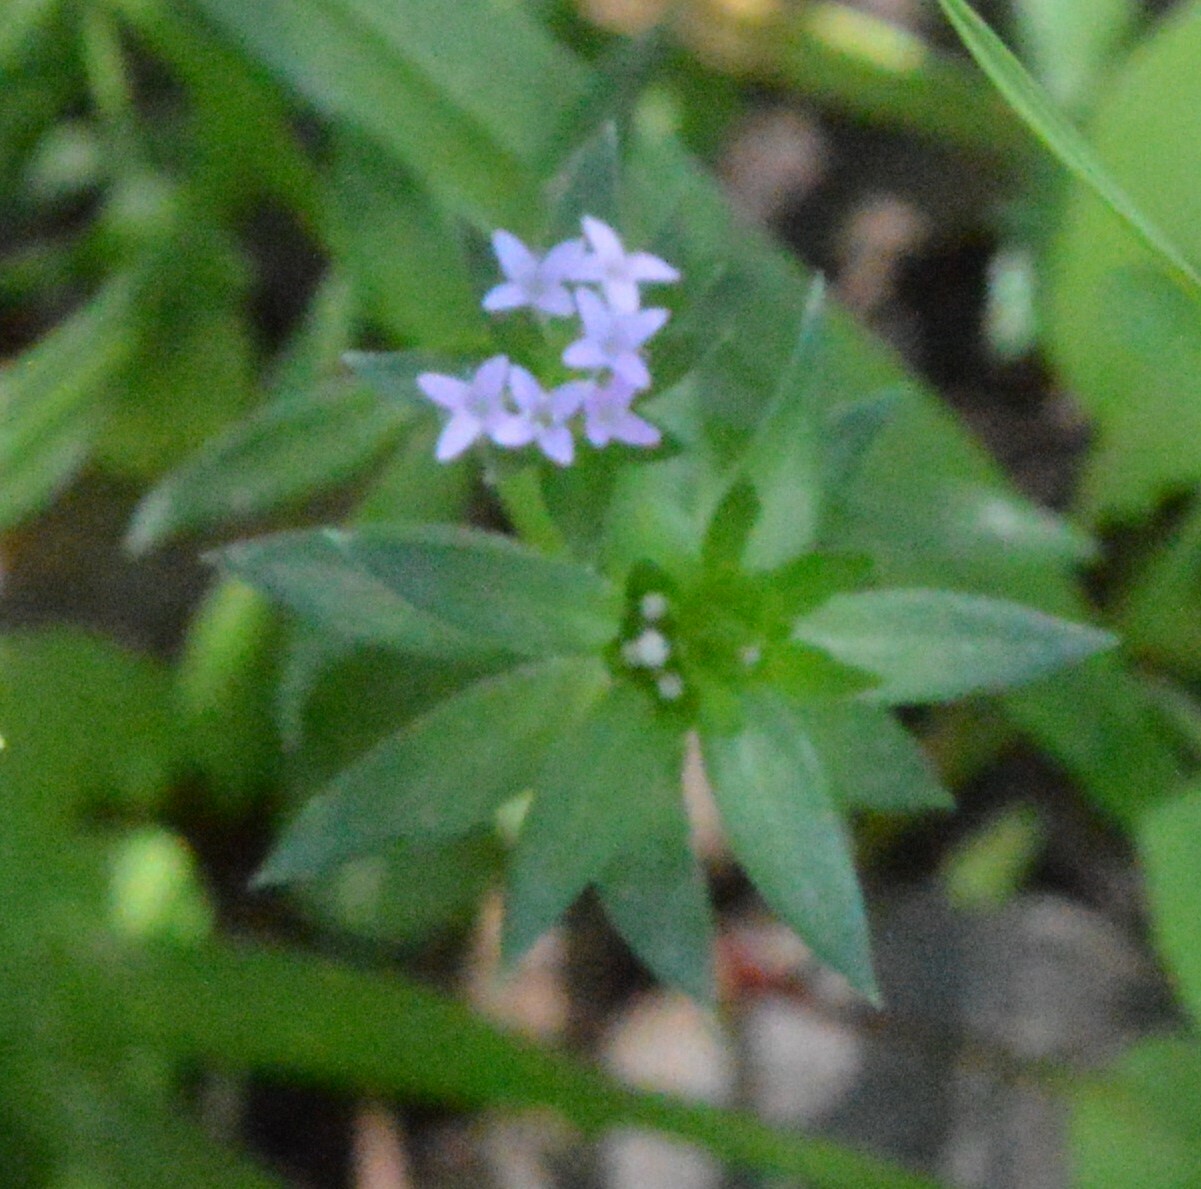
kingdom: Plantae
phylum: Tracheophyta
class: Magnoliopsida
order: Gentianales
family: Rubiaceae
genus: Sherardia
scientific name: Sherardia arvensis
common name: Field madder
